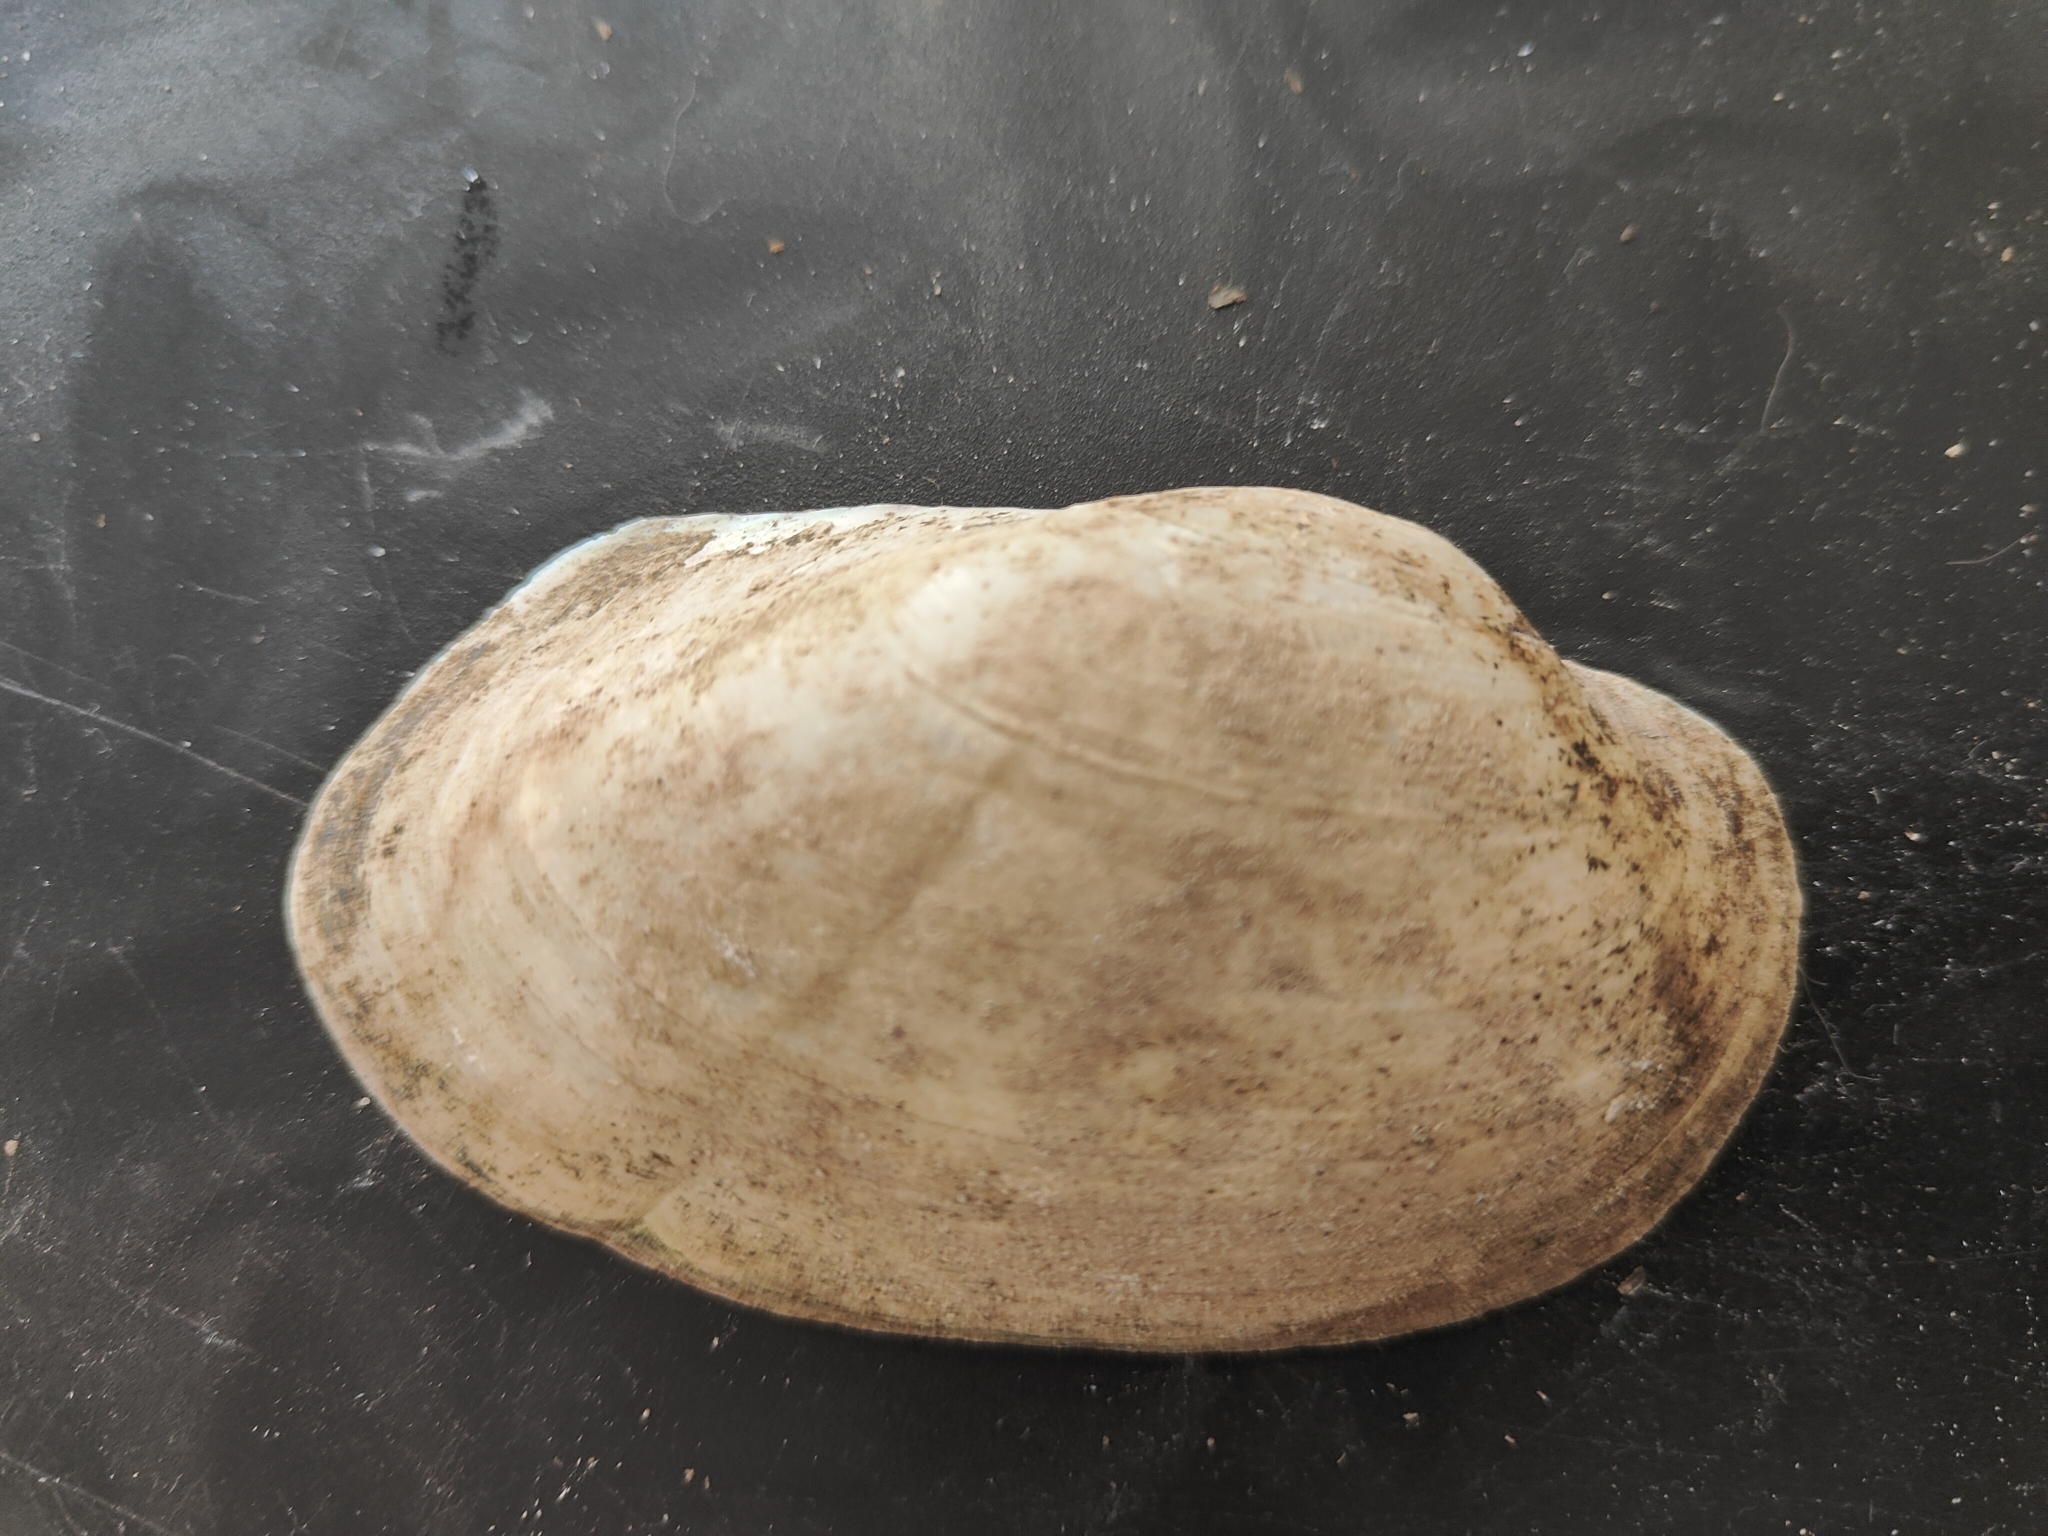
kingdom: Animalia
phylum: Mollusca
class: Bivalvia
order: Unionida
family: Unionidae
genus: Lampsilis
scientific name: Lampsilis siliquoidea
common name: Fatmucket
